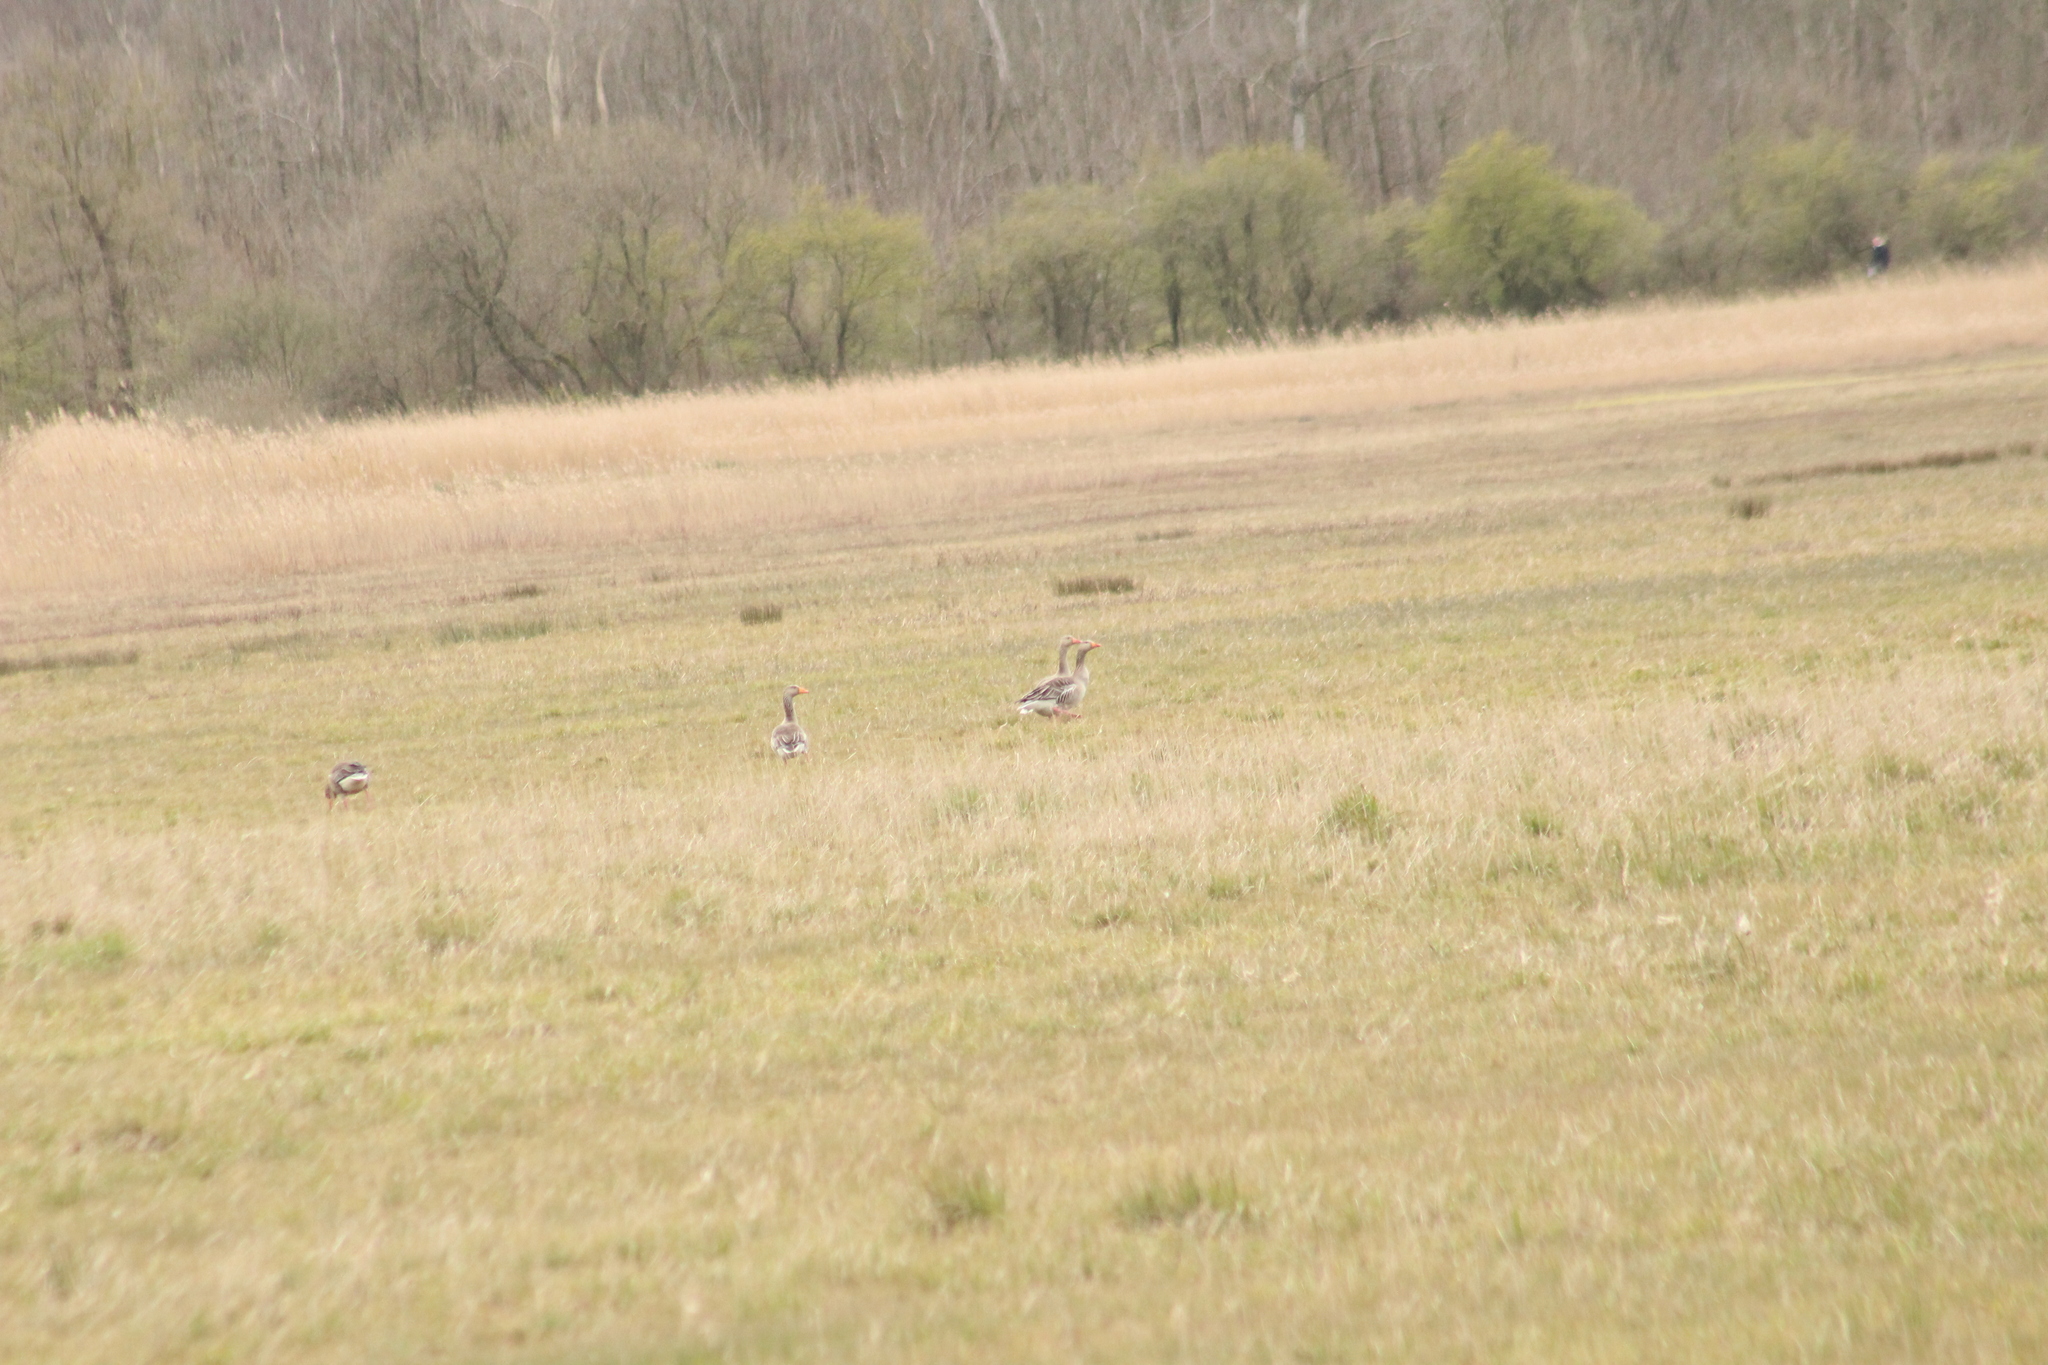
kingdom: Animalia
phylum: Chordata
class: Aves
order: Anseriformes
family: Anatidae
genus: Anser
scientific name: Anser anser
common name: Greylag goose
